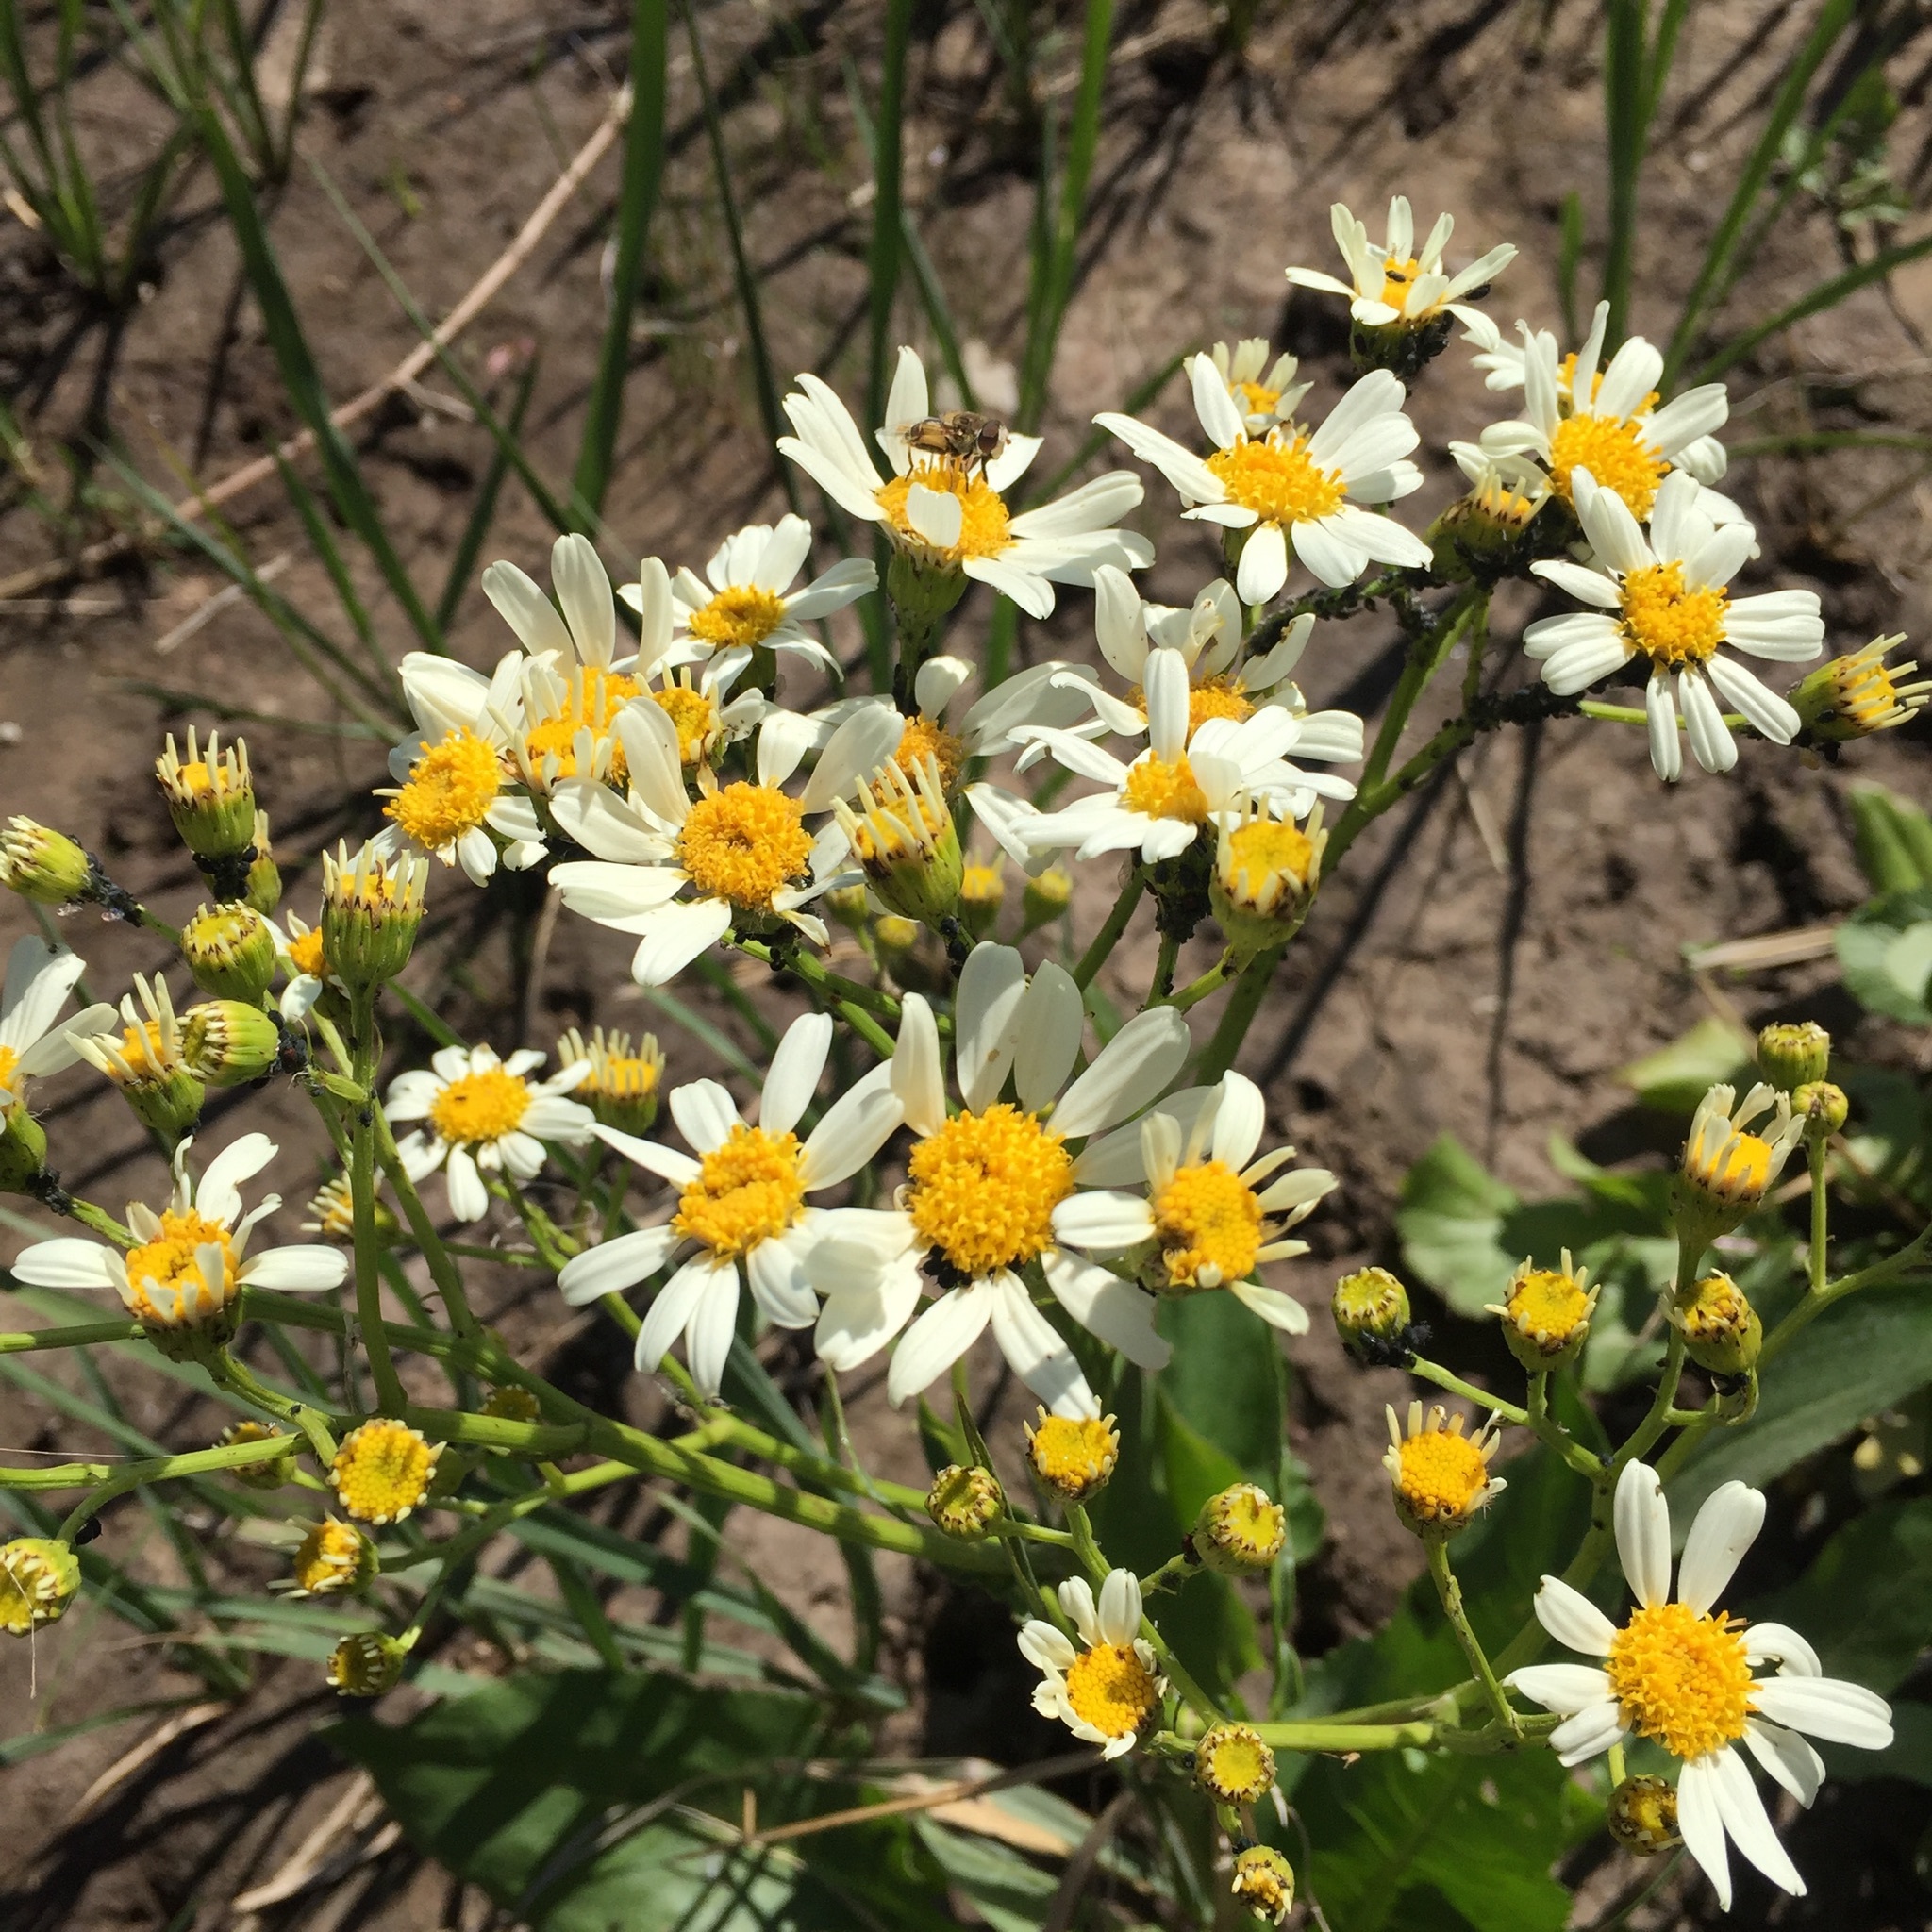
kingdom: Plantae
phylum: Tracheophyta
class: Magnoliopsida
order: Asterales
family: Asteraceae
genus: Senecio
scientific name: Senecio bonariensis
